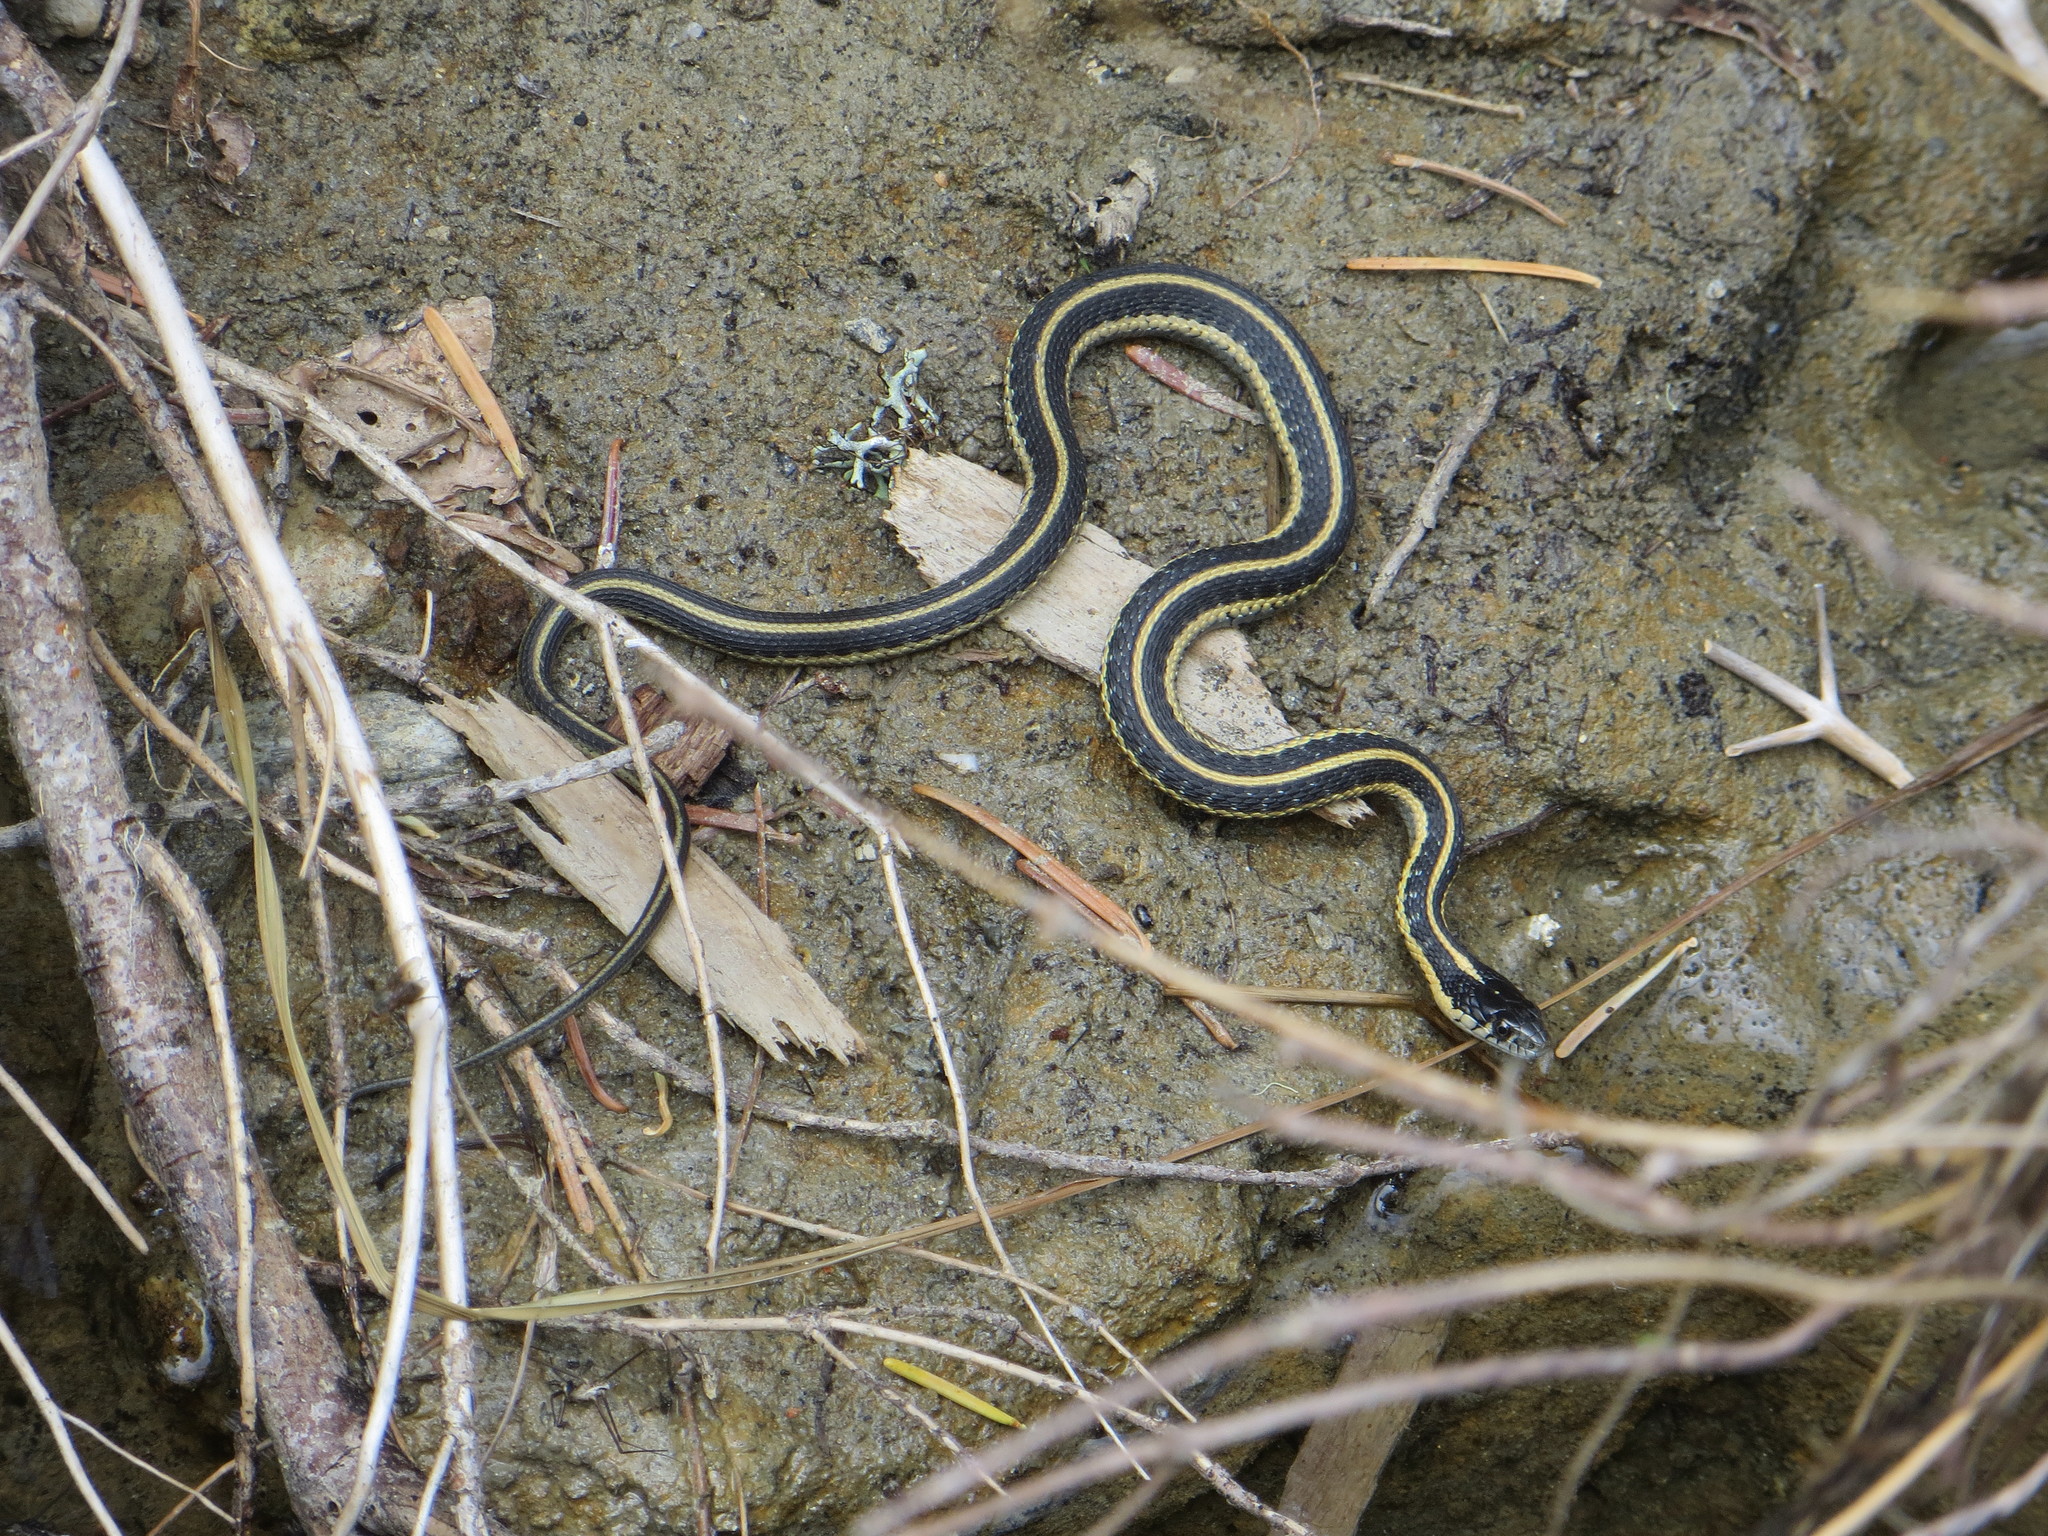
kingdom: Animalia
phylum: Chordata
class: Squamata
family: Colubridae
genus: Thamnophis
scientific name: Thamnophis atratus
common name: Pacific coast aquatic garter snake
